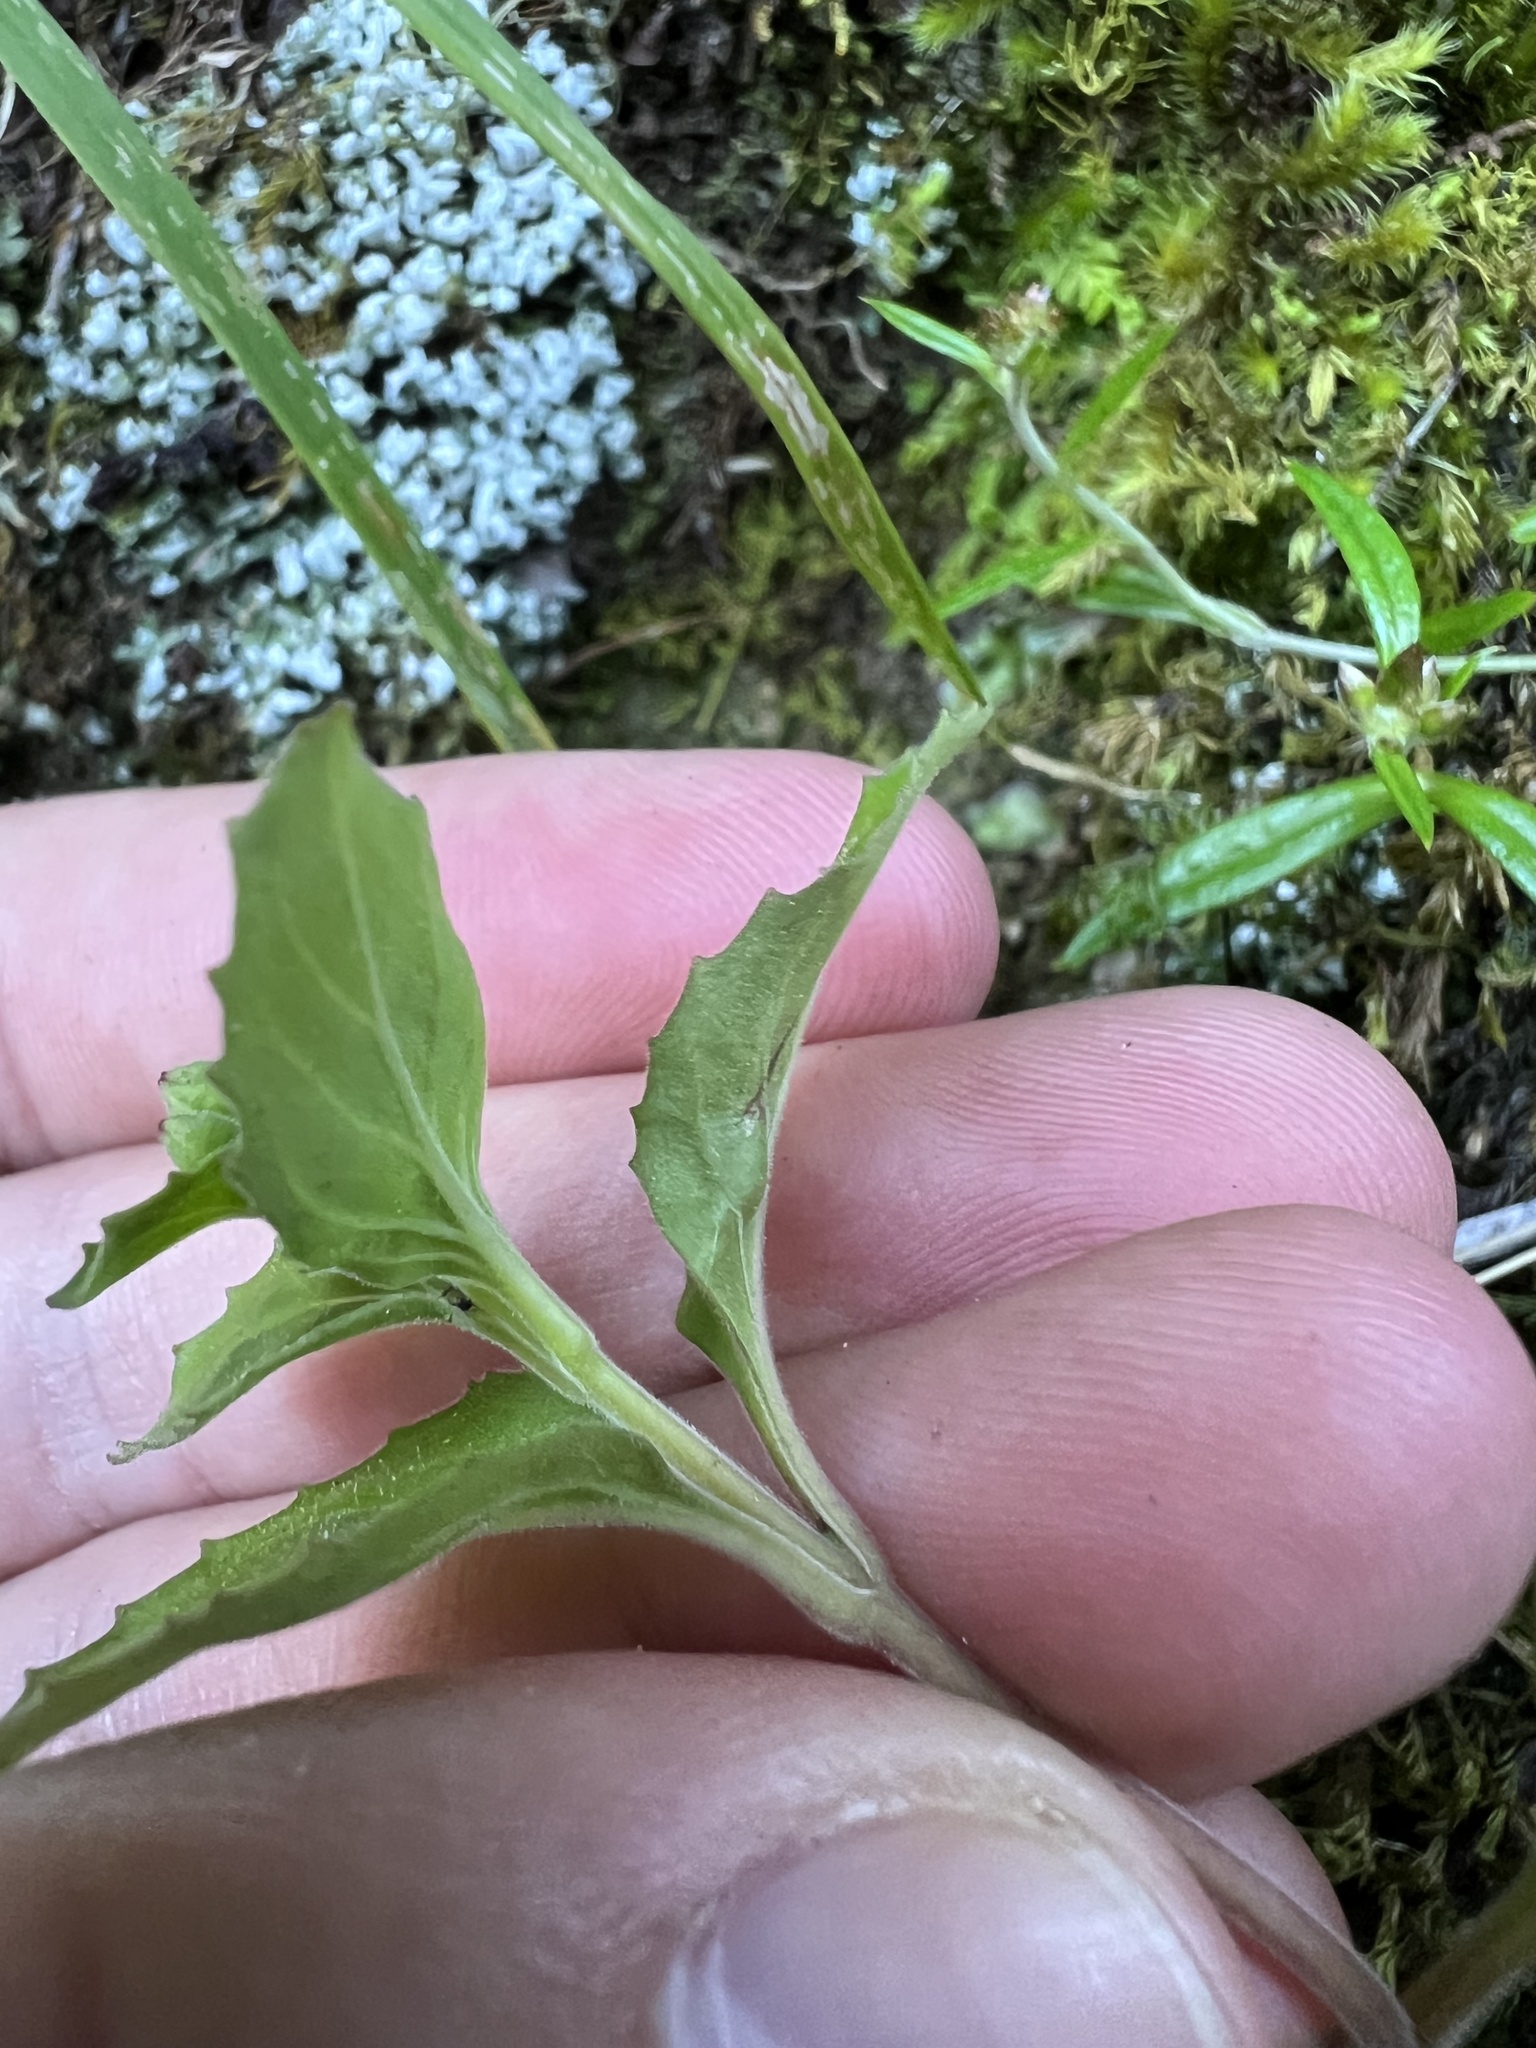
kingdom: Plantae
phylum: Tracheophyta
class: Magnoliopsida
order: Myrtales
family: Onagraceae
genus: Epilobium
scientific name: Epilobium pubens
